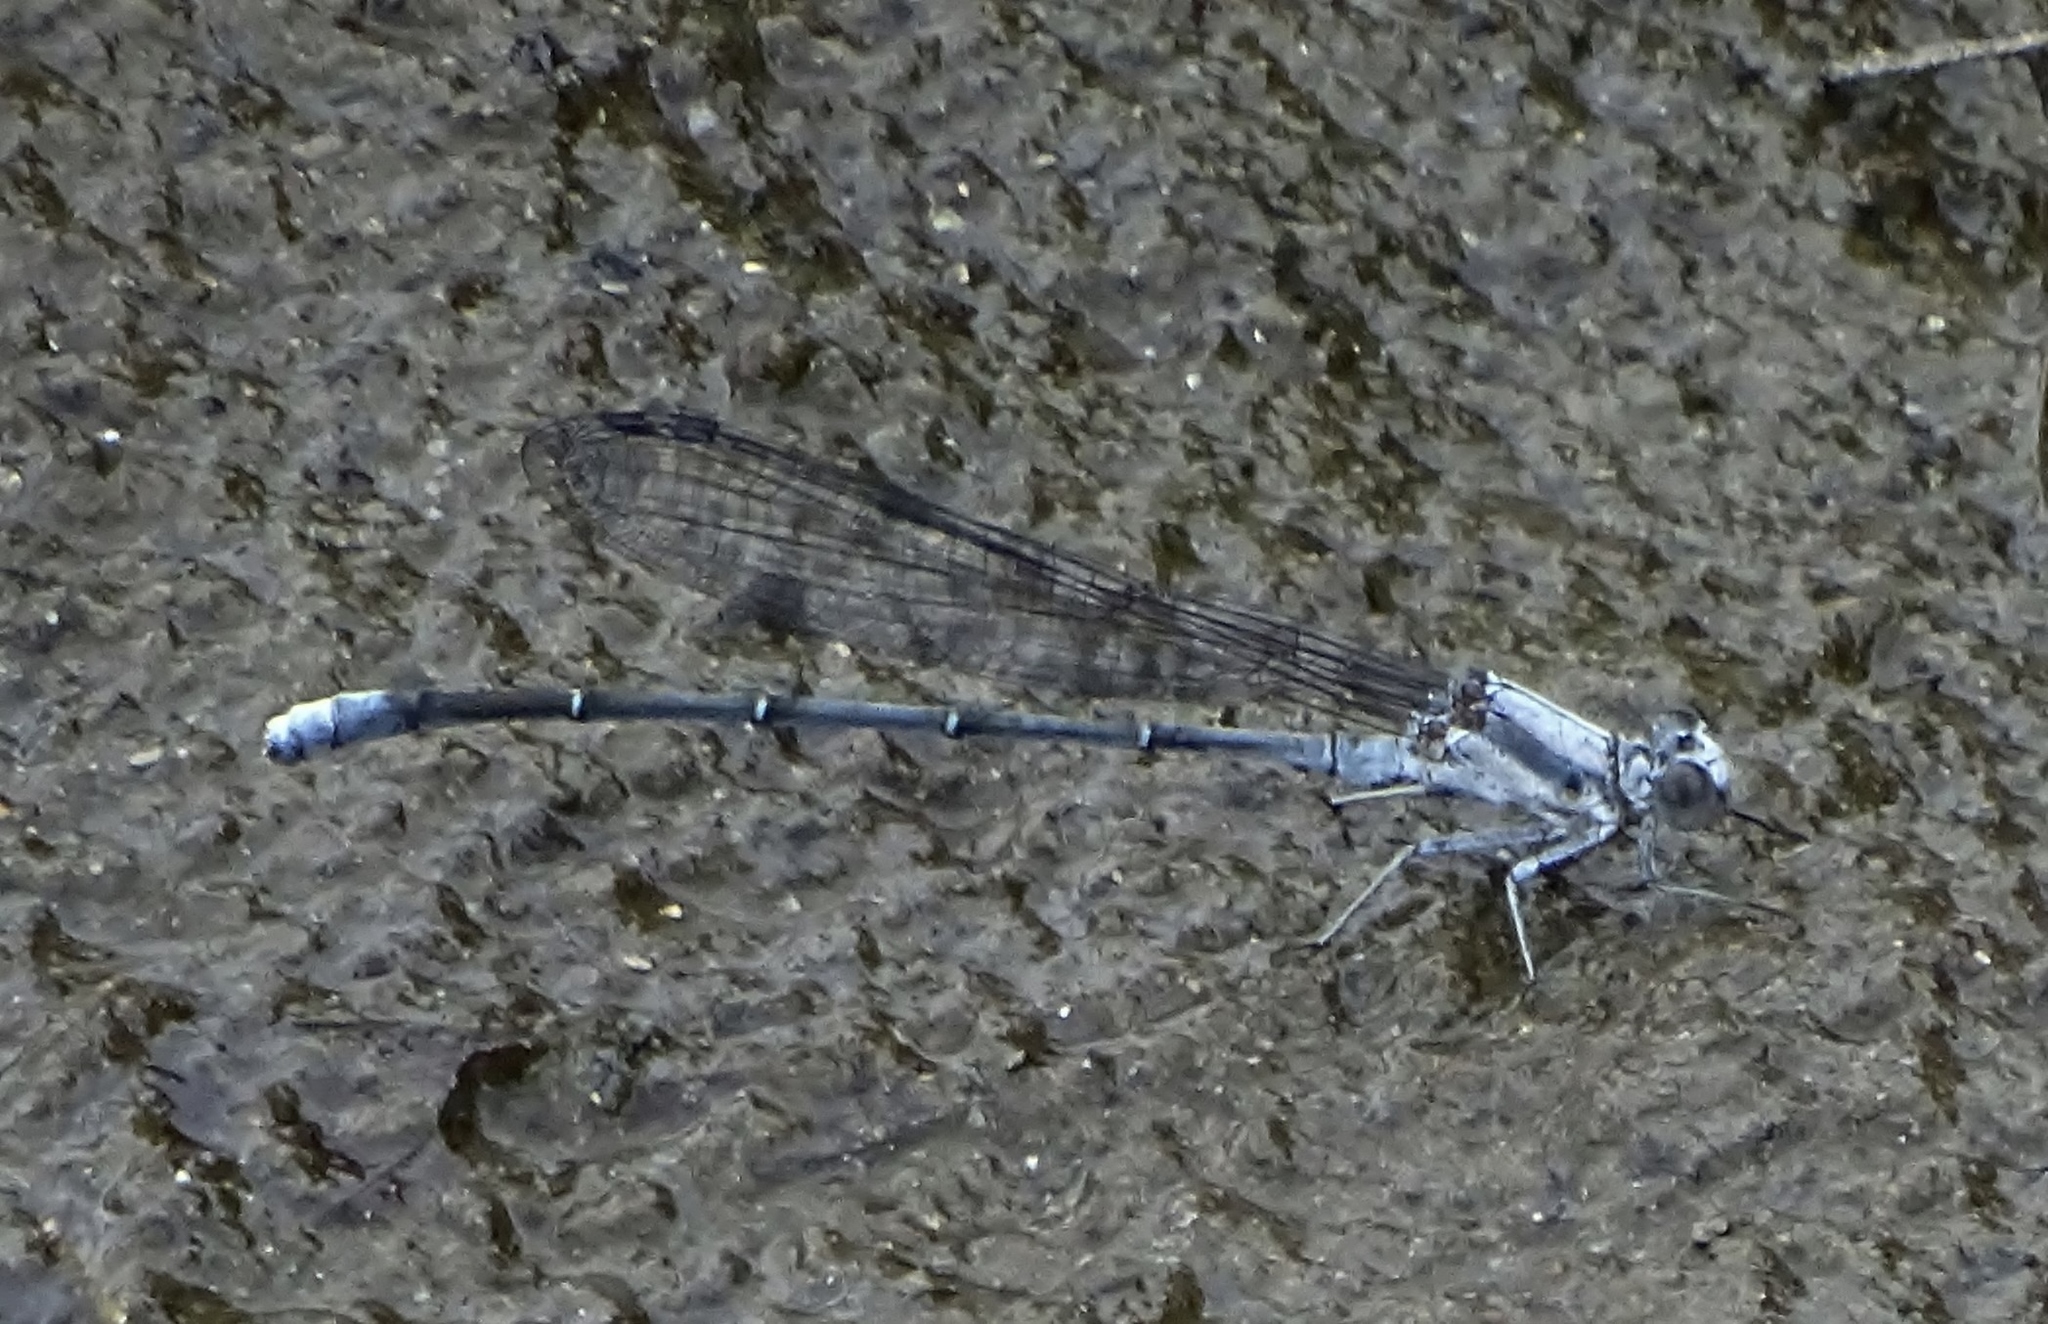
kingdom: Animalia
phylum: Arthropoda
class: Insecta
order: Odonata
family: Coenagrionidae
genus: Argia
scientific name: Argia moesta
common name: Powdered dancer
